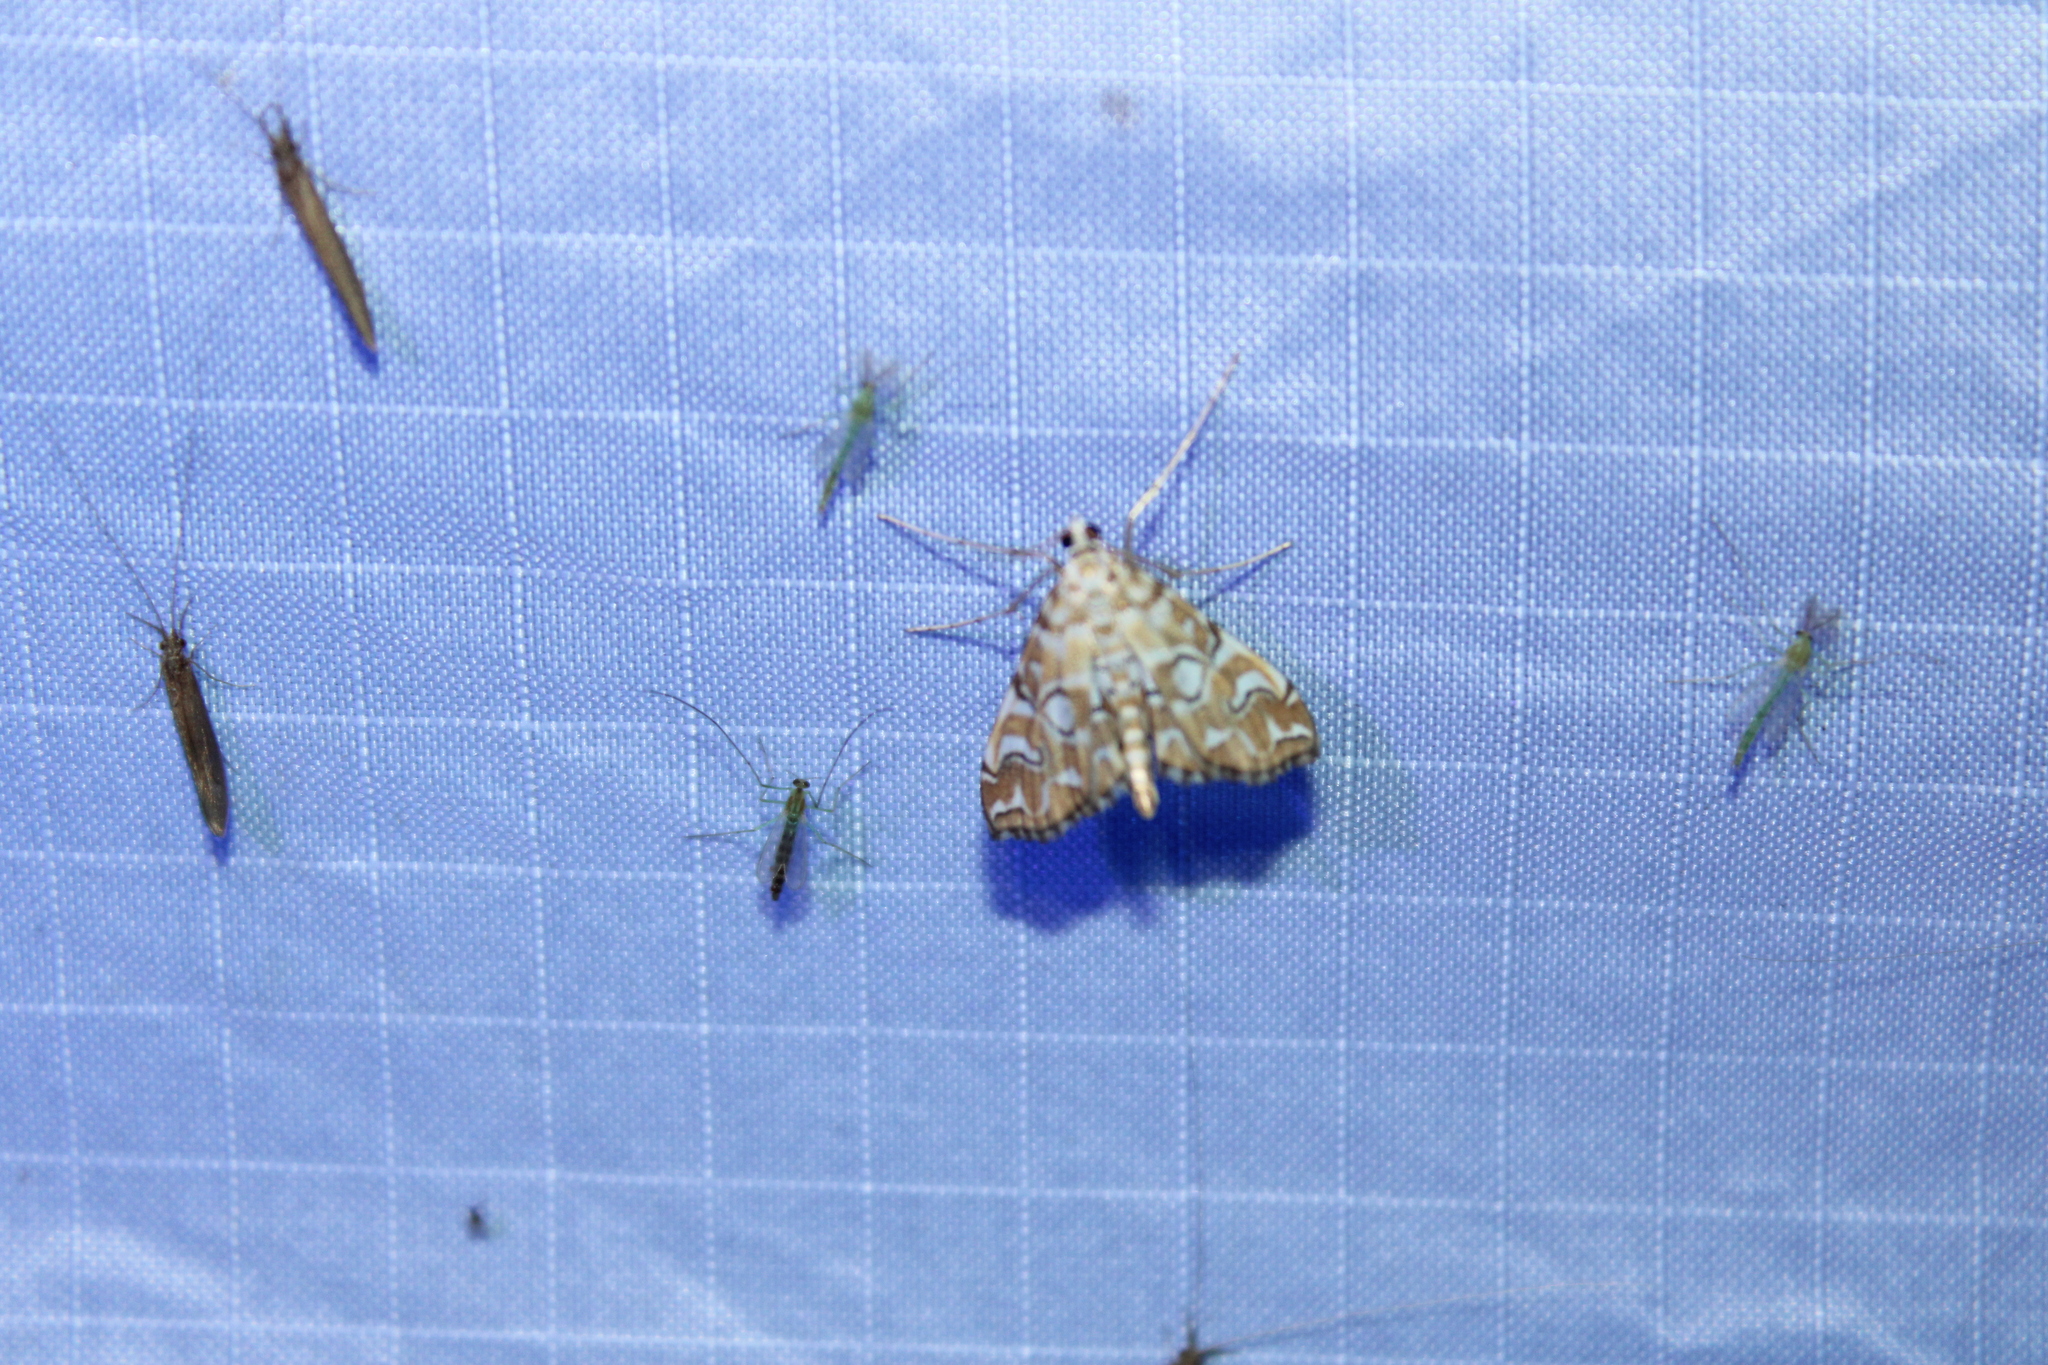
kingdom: Animalia
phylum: Arthropoda
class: Insecta
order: Lepidoptera
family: Crambidae
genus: Elophila
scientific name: Elophila icciusalis
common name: Pondside pyralid moth
